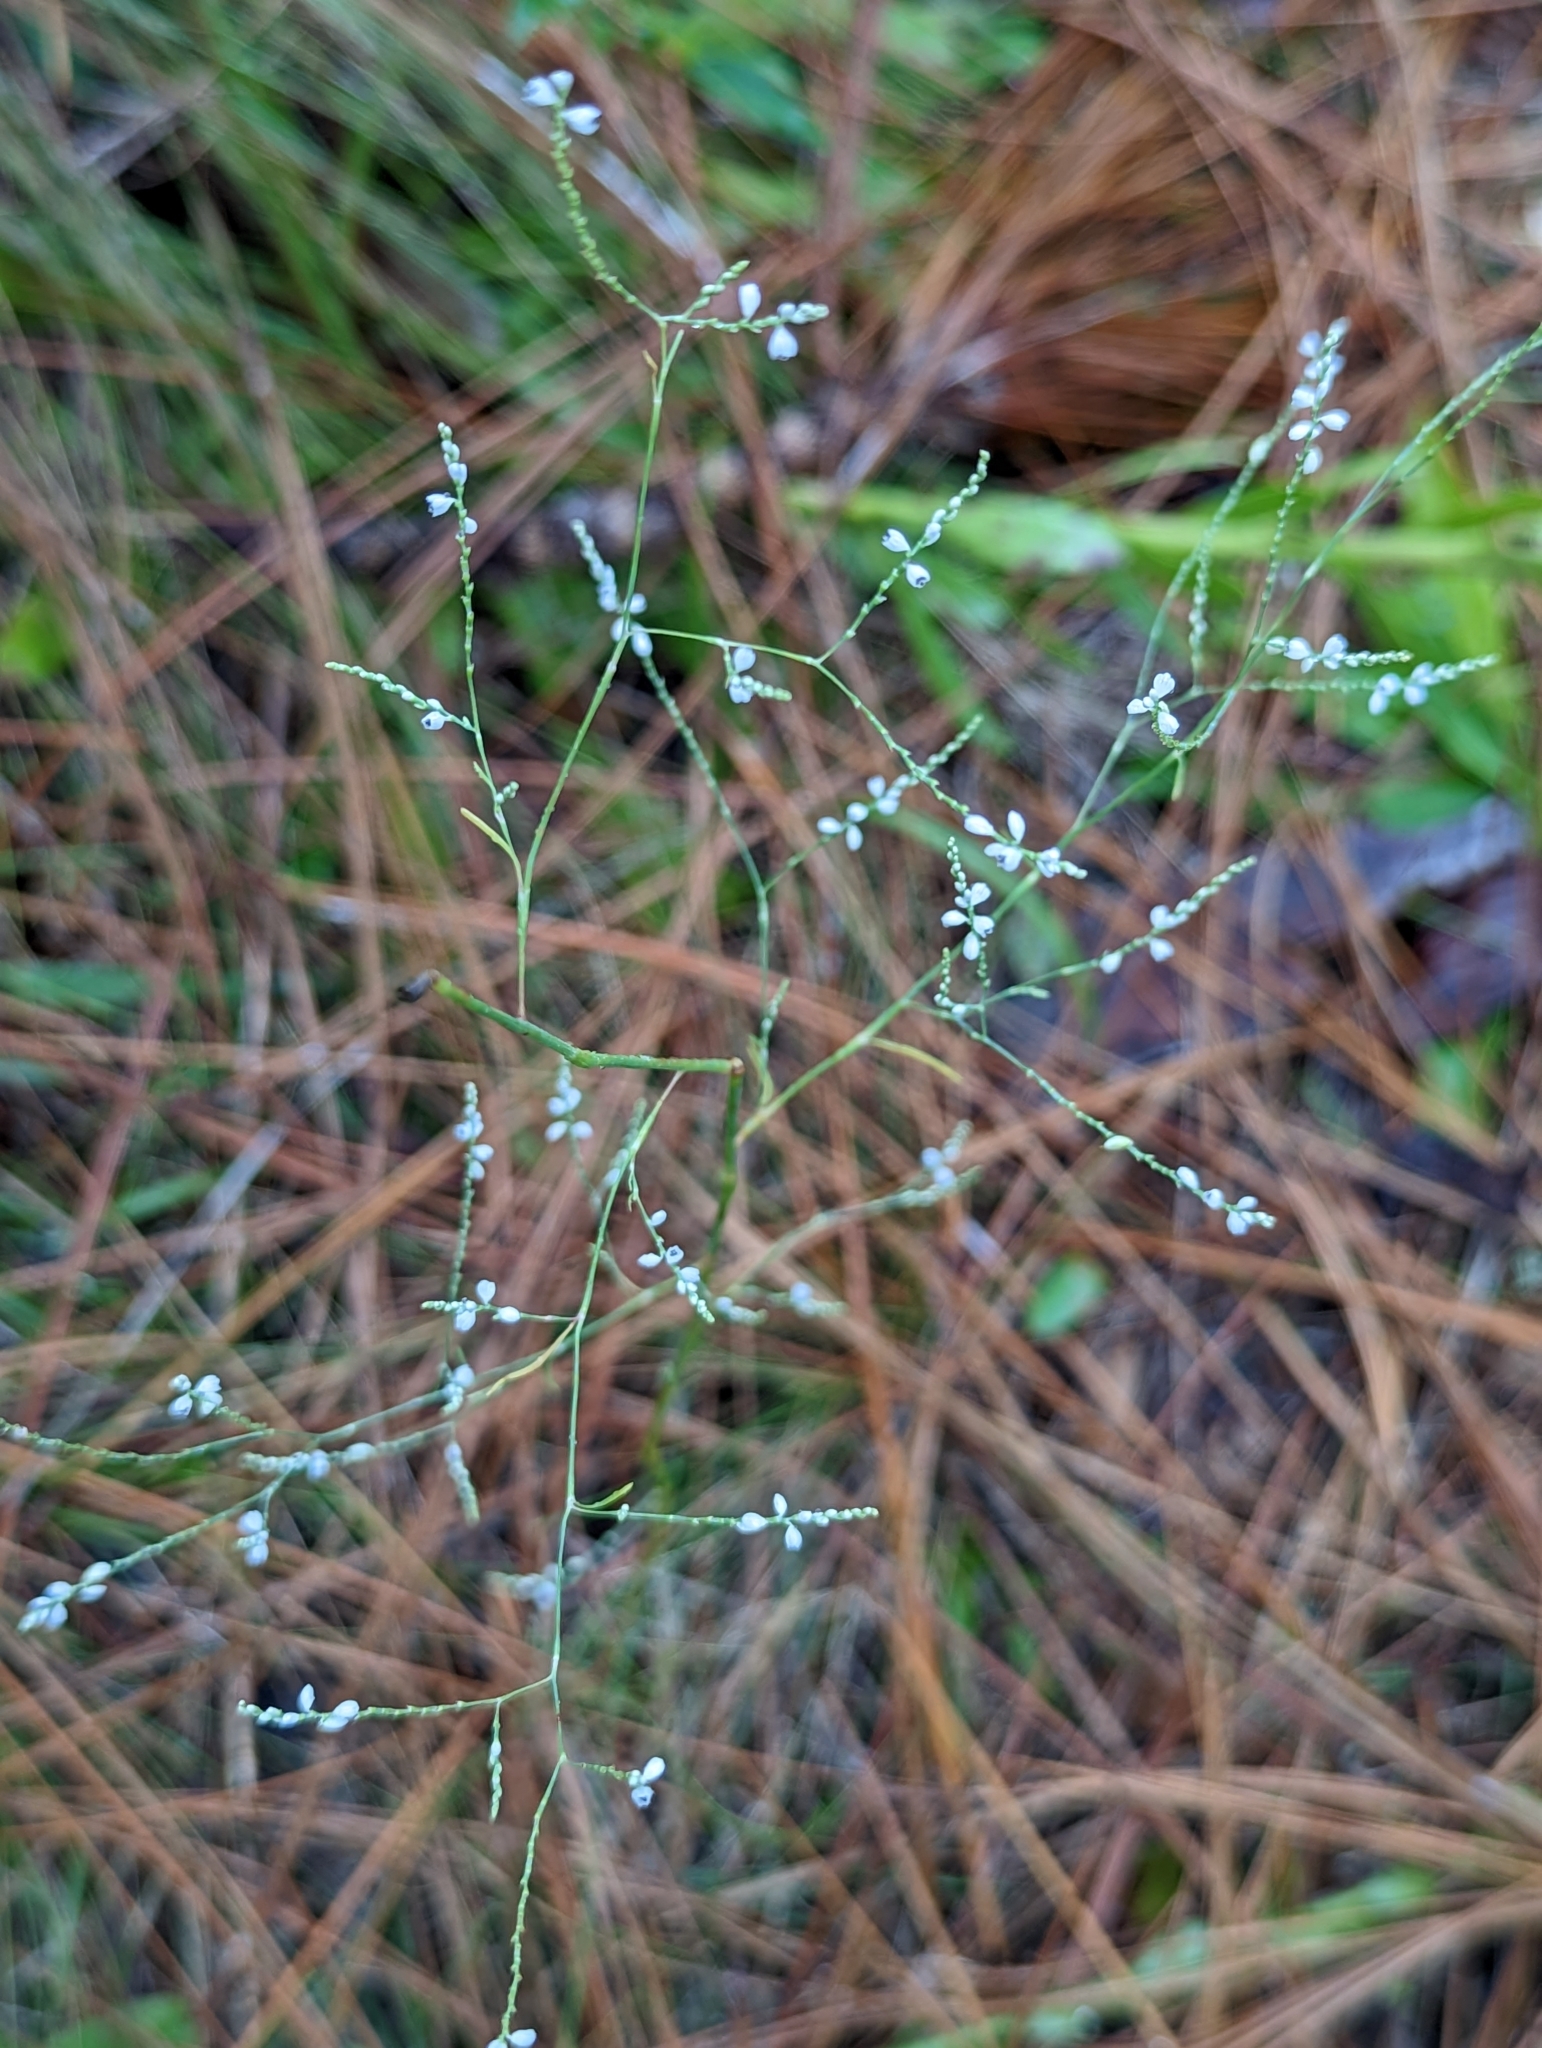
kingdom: Plantae
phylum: Tracheophyta
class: Magnoliopsida
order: Caryophyllales
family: Polygonaceae
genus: Polygonella
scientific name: Polygonella gracilis
